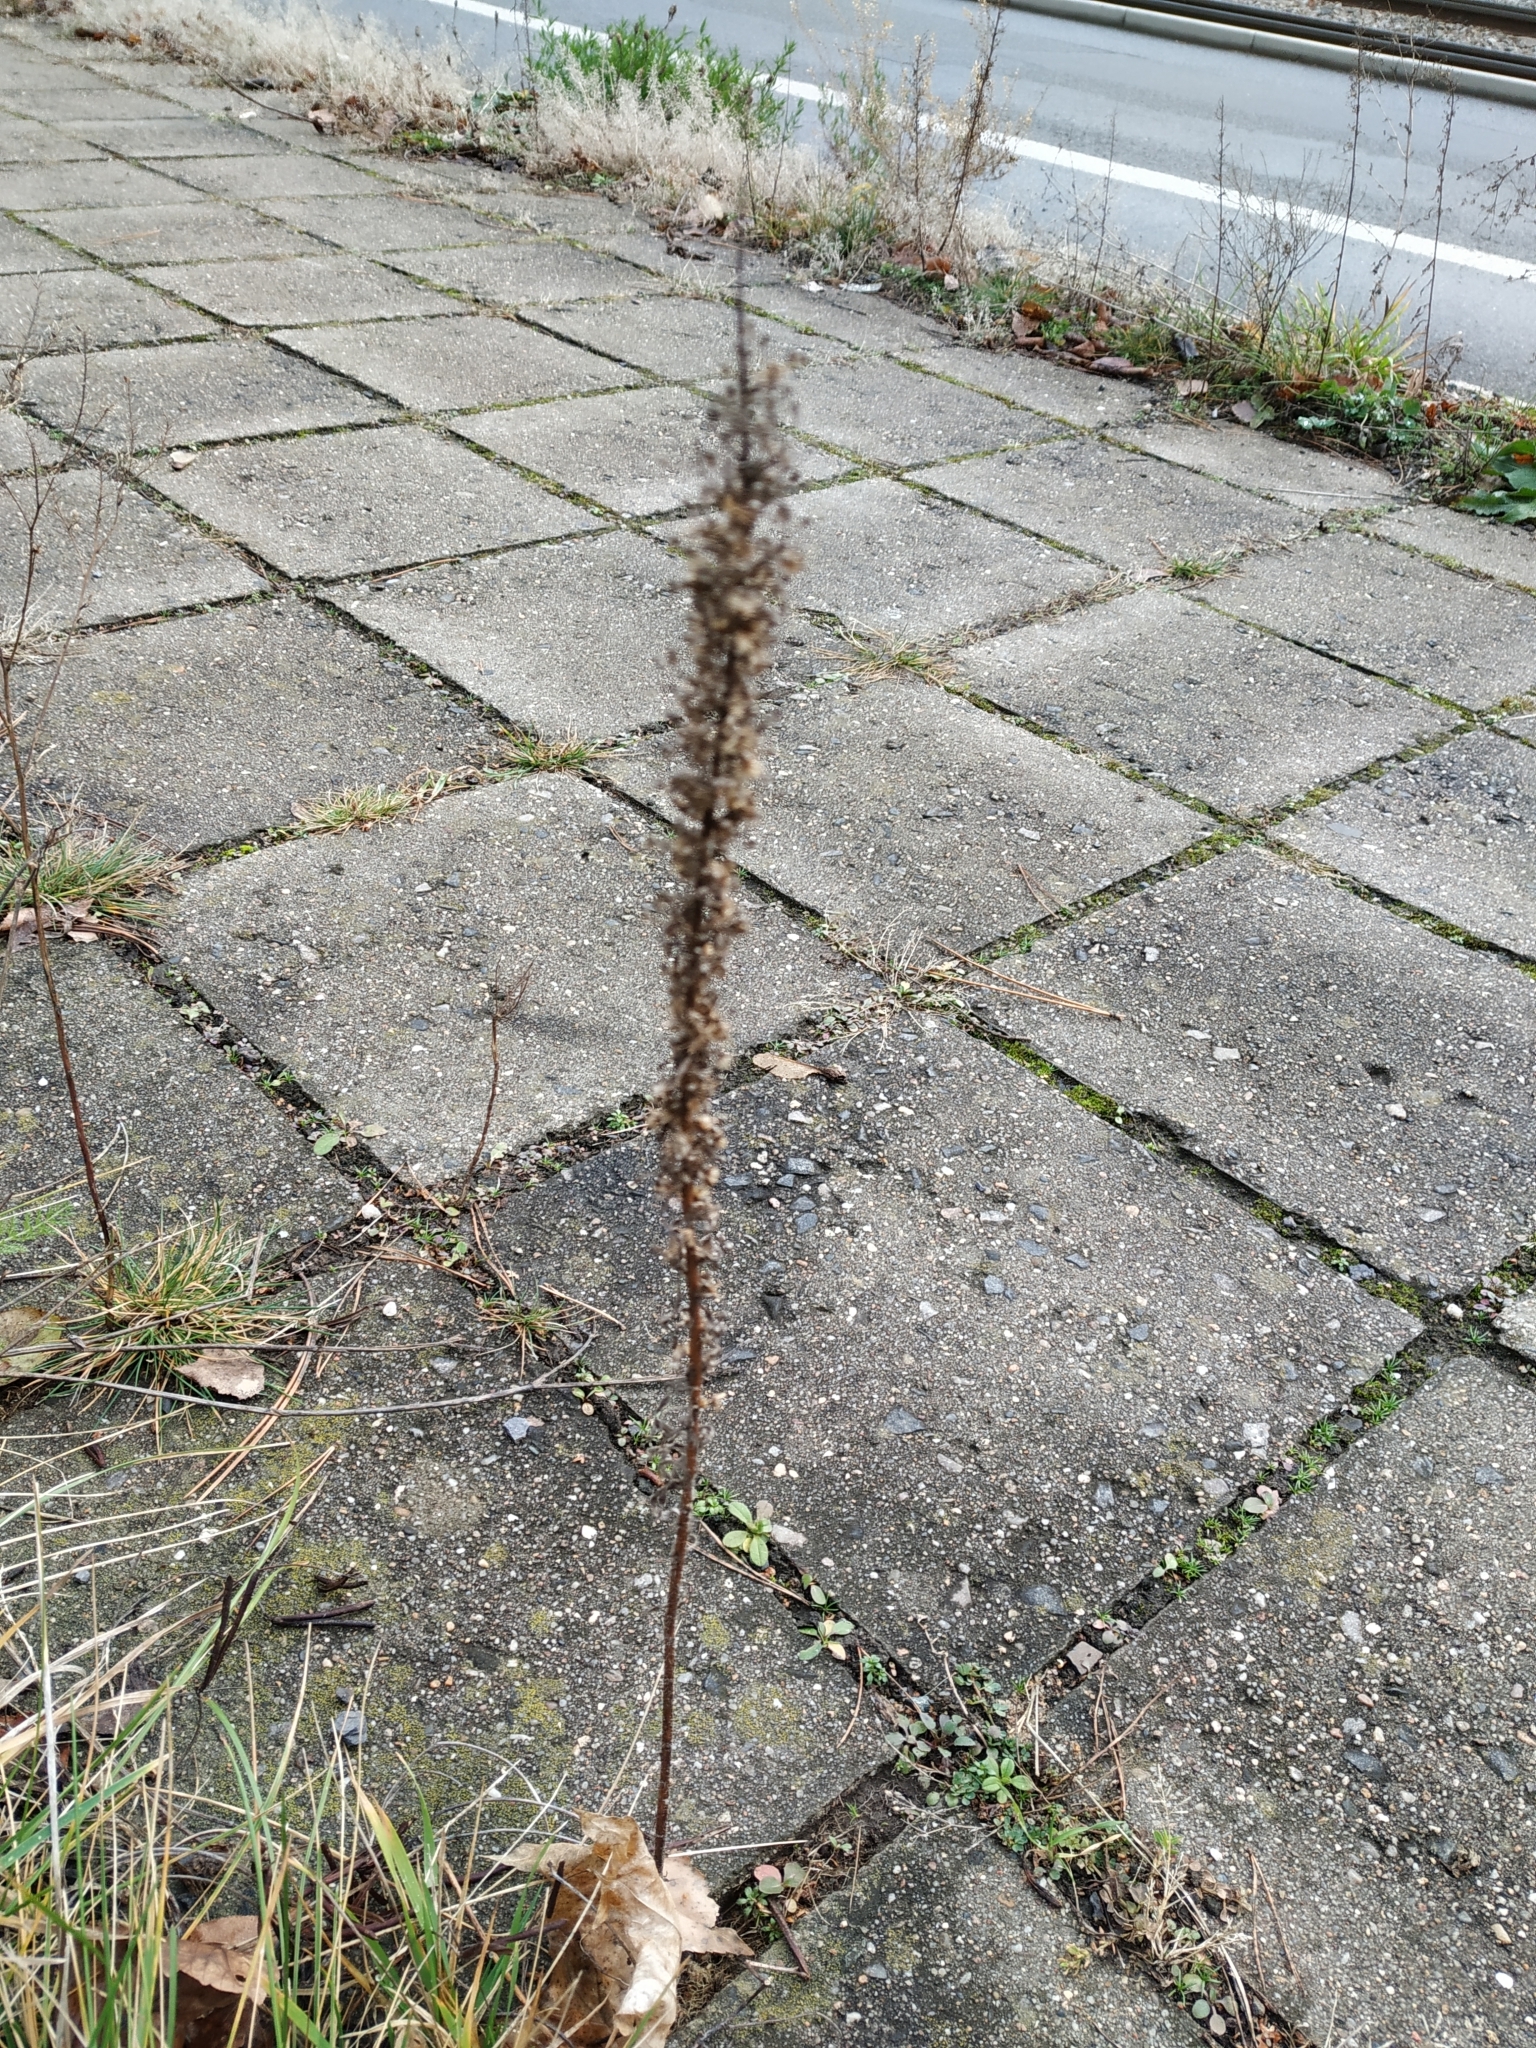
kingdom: Plantae
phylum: Tracheophyta
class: Magnoliopsida
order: Asterales
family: Asteraceae
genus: Erigeron
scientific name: Erigeron canadensis
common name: Canadian fleabane
